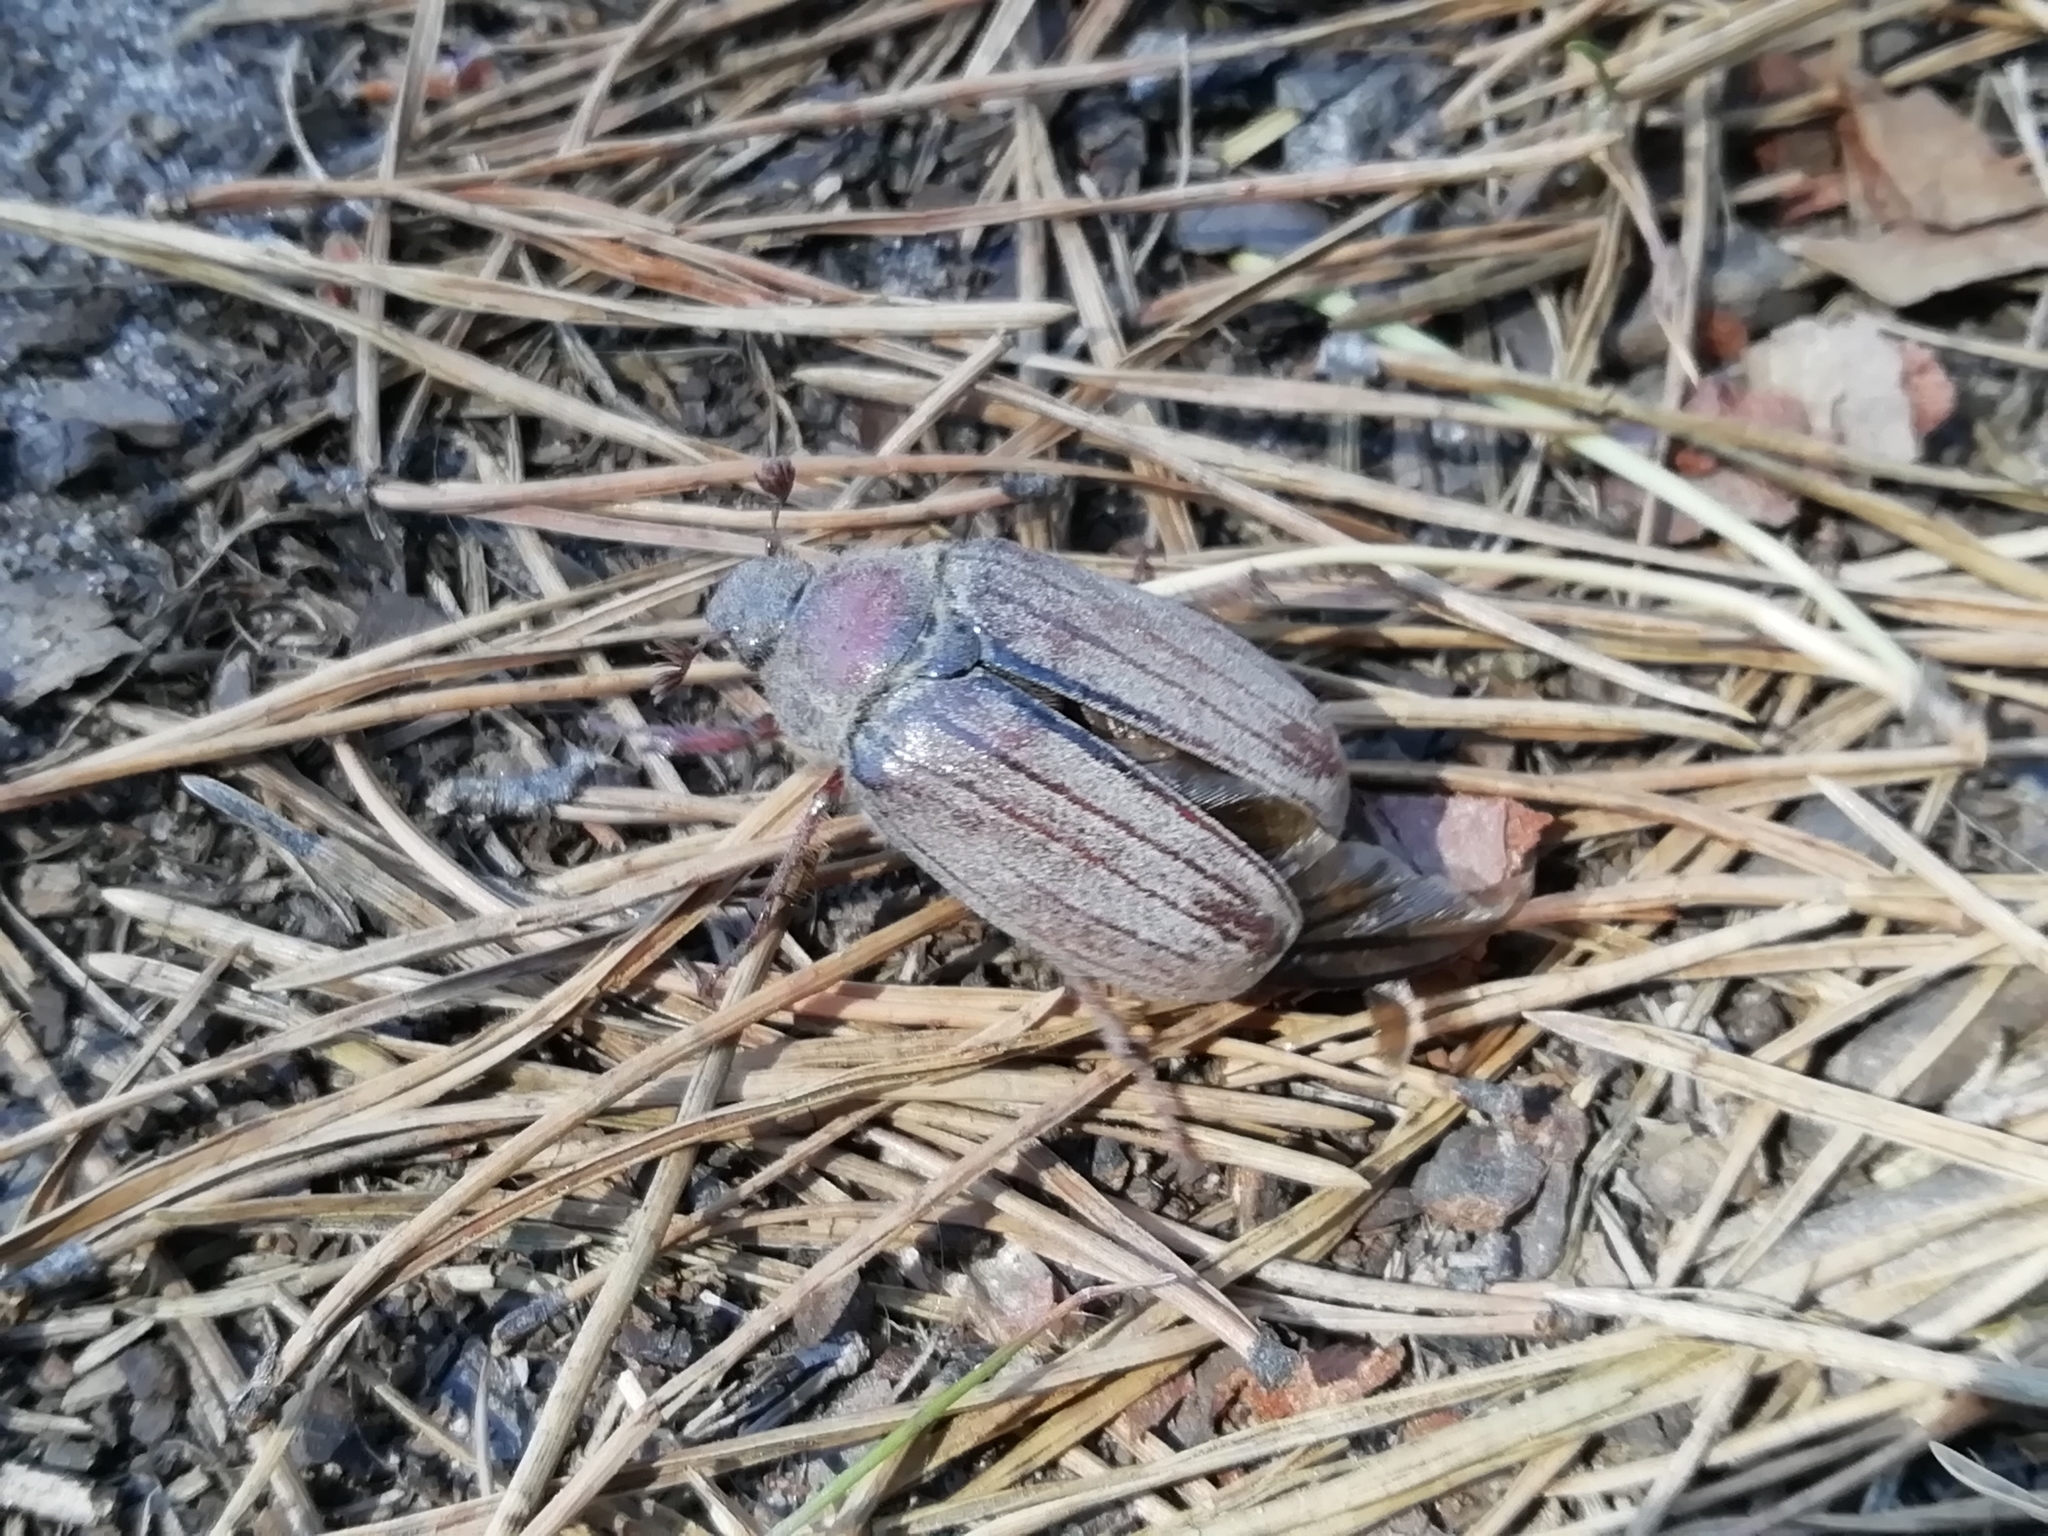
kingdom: Animalia
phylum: Arthropoda
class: Insecta
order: Coleoptera
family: Scarabaeidae
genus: Melolontha
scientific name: Melolontha hippocastani
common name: Chestnut cockchafer
